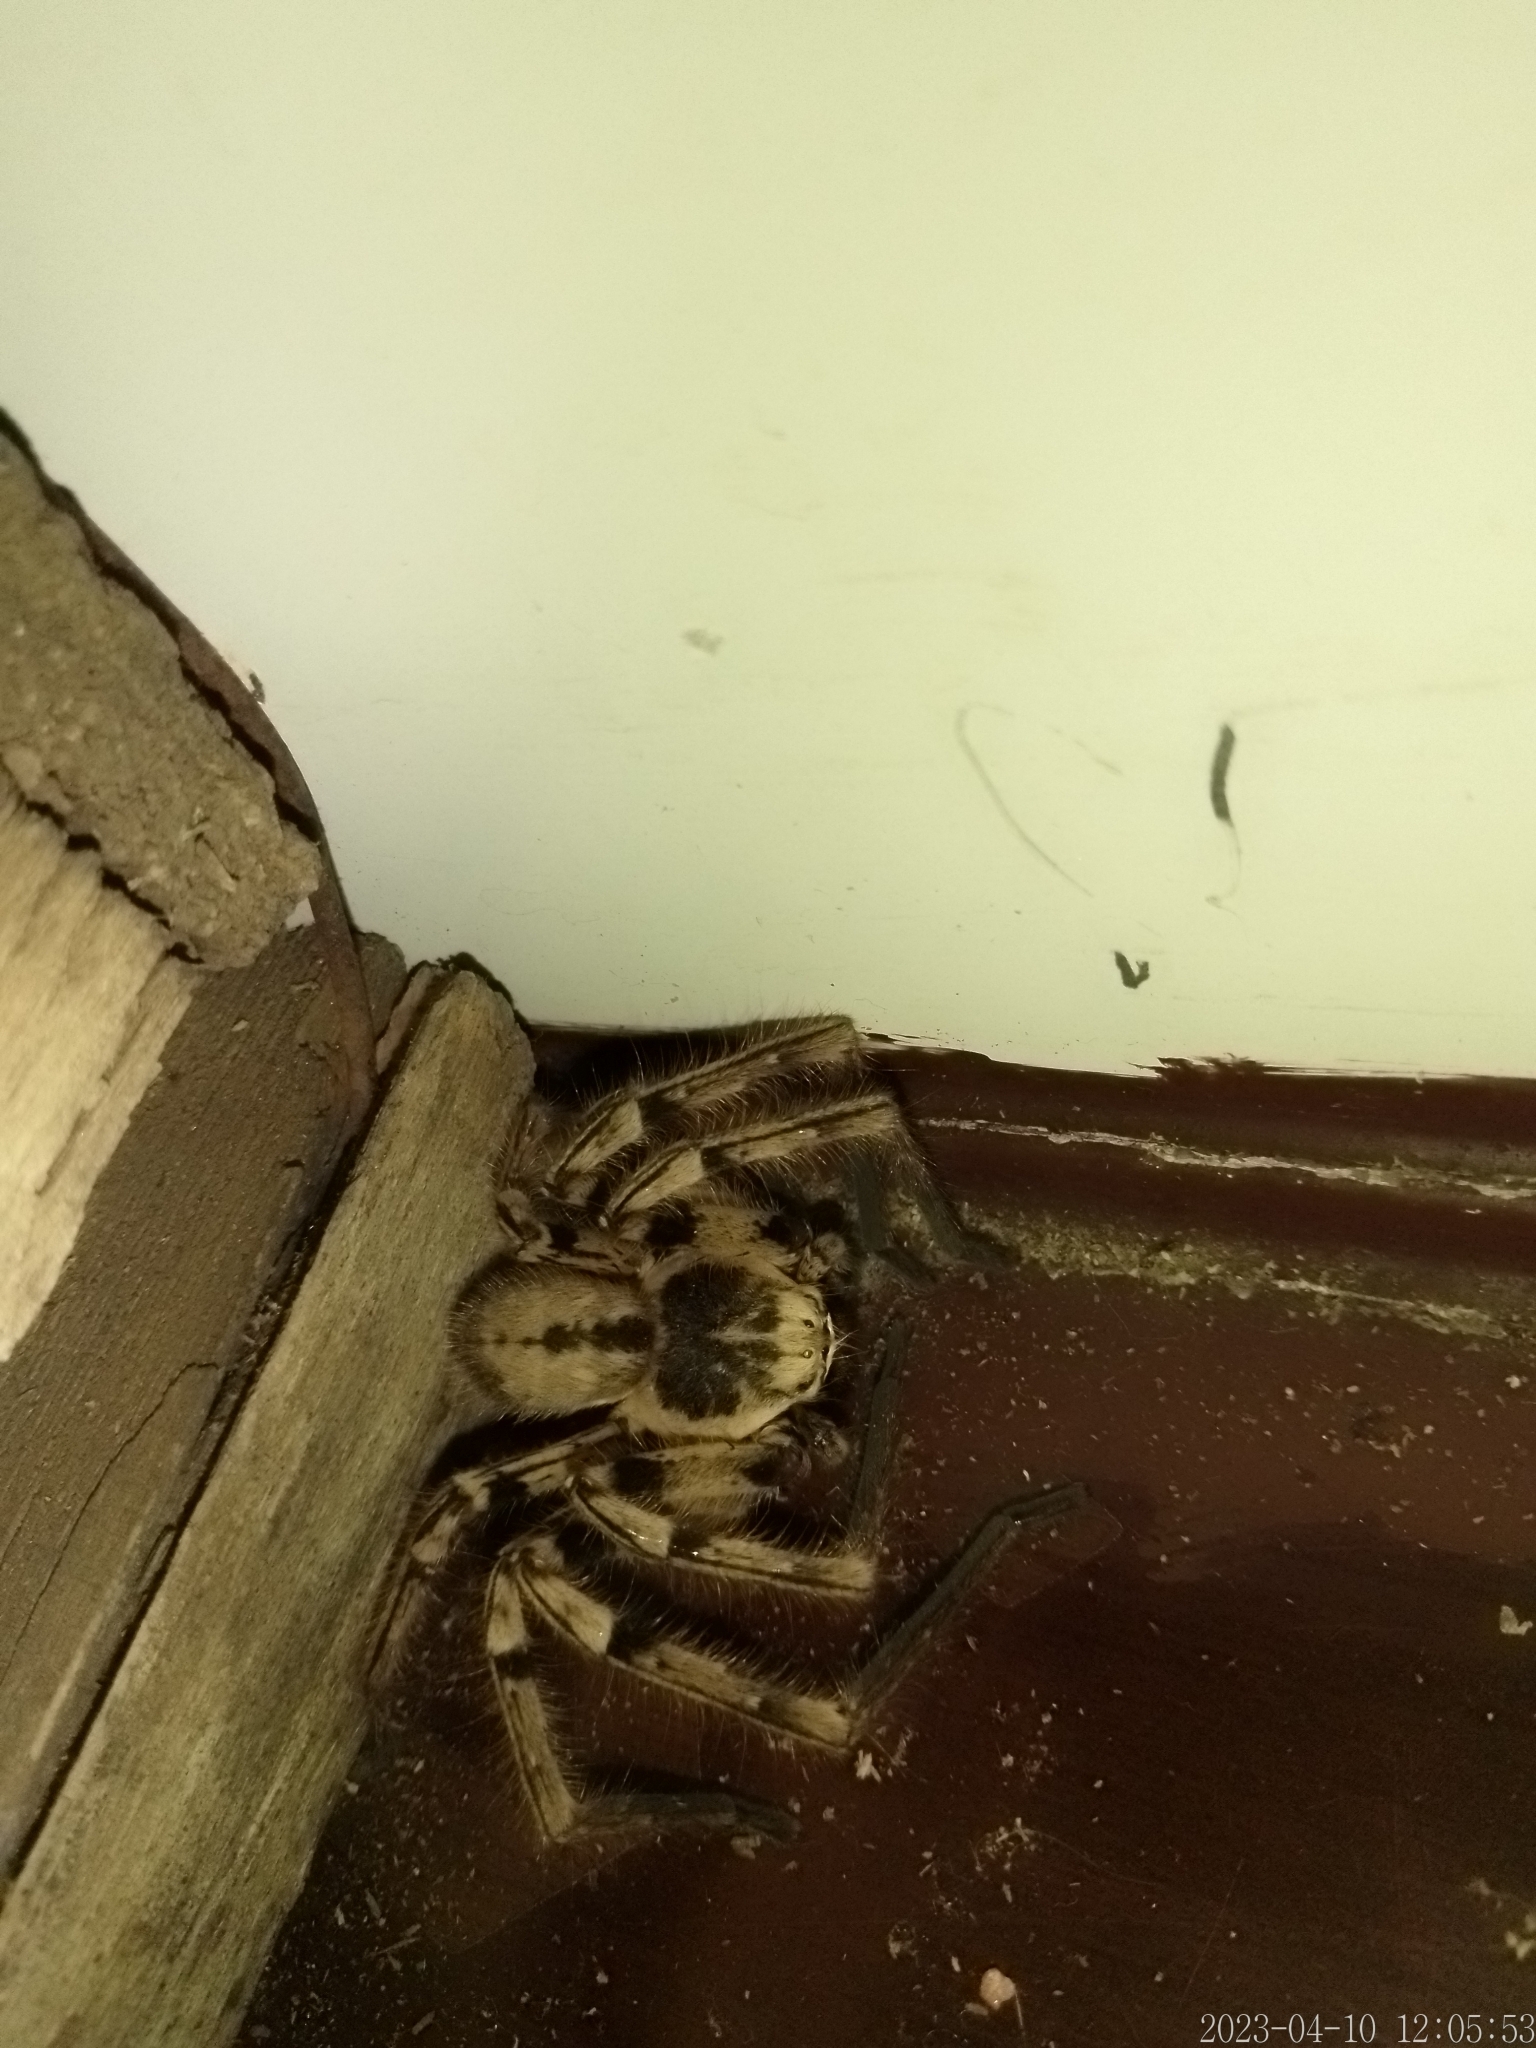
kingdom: Animalia
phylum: Arthropoda
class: Arachnida
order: Araneae
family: Sparassidae
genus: Polybetes
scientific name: Polybetes pythagoricus
